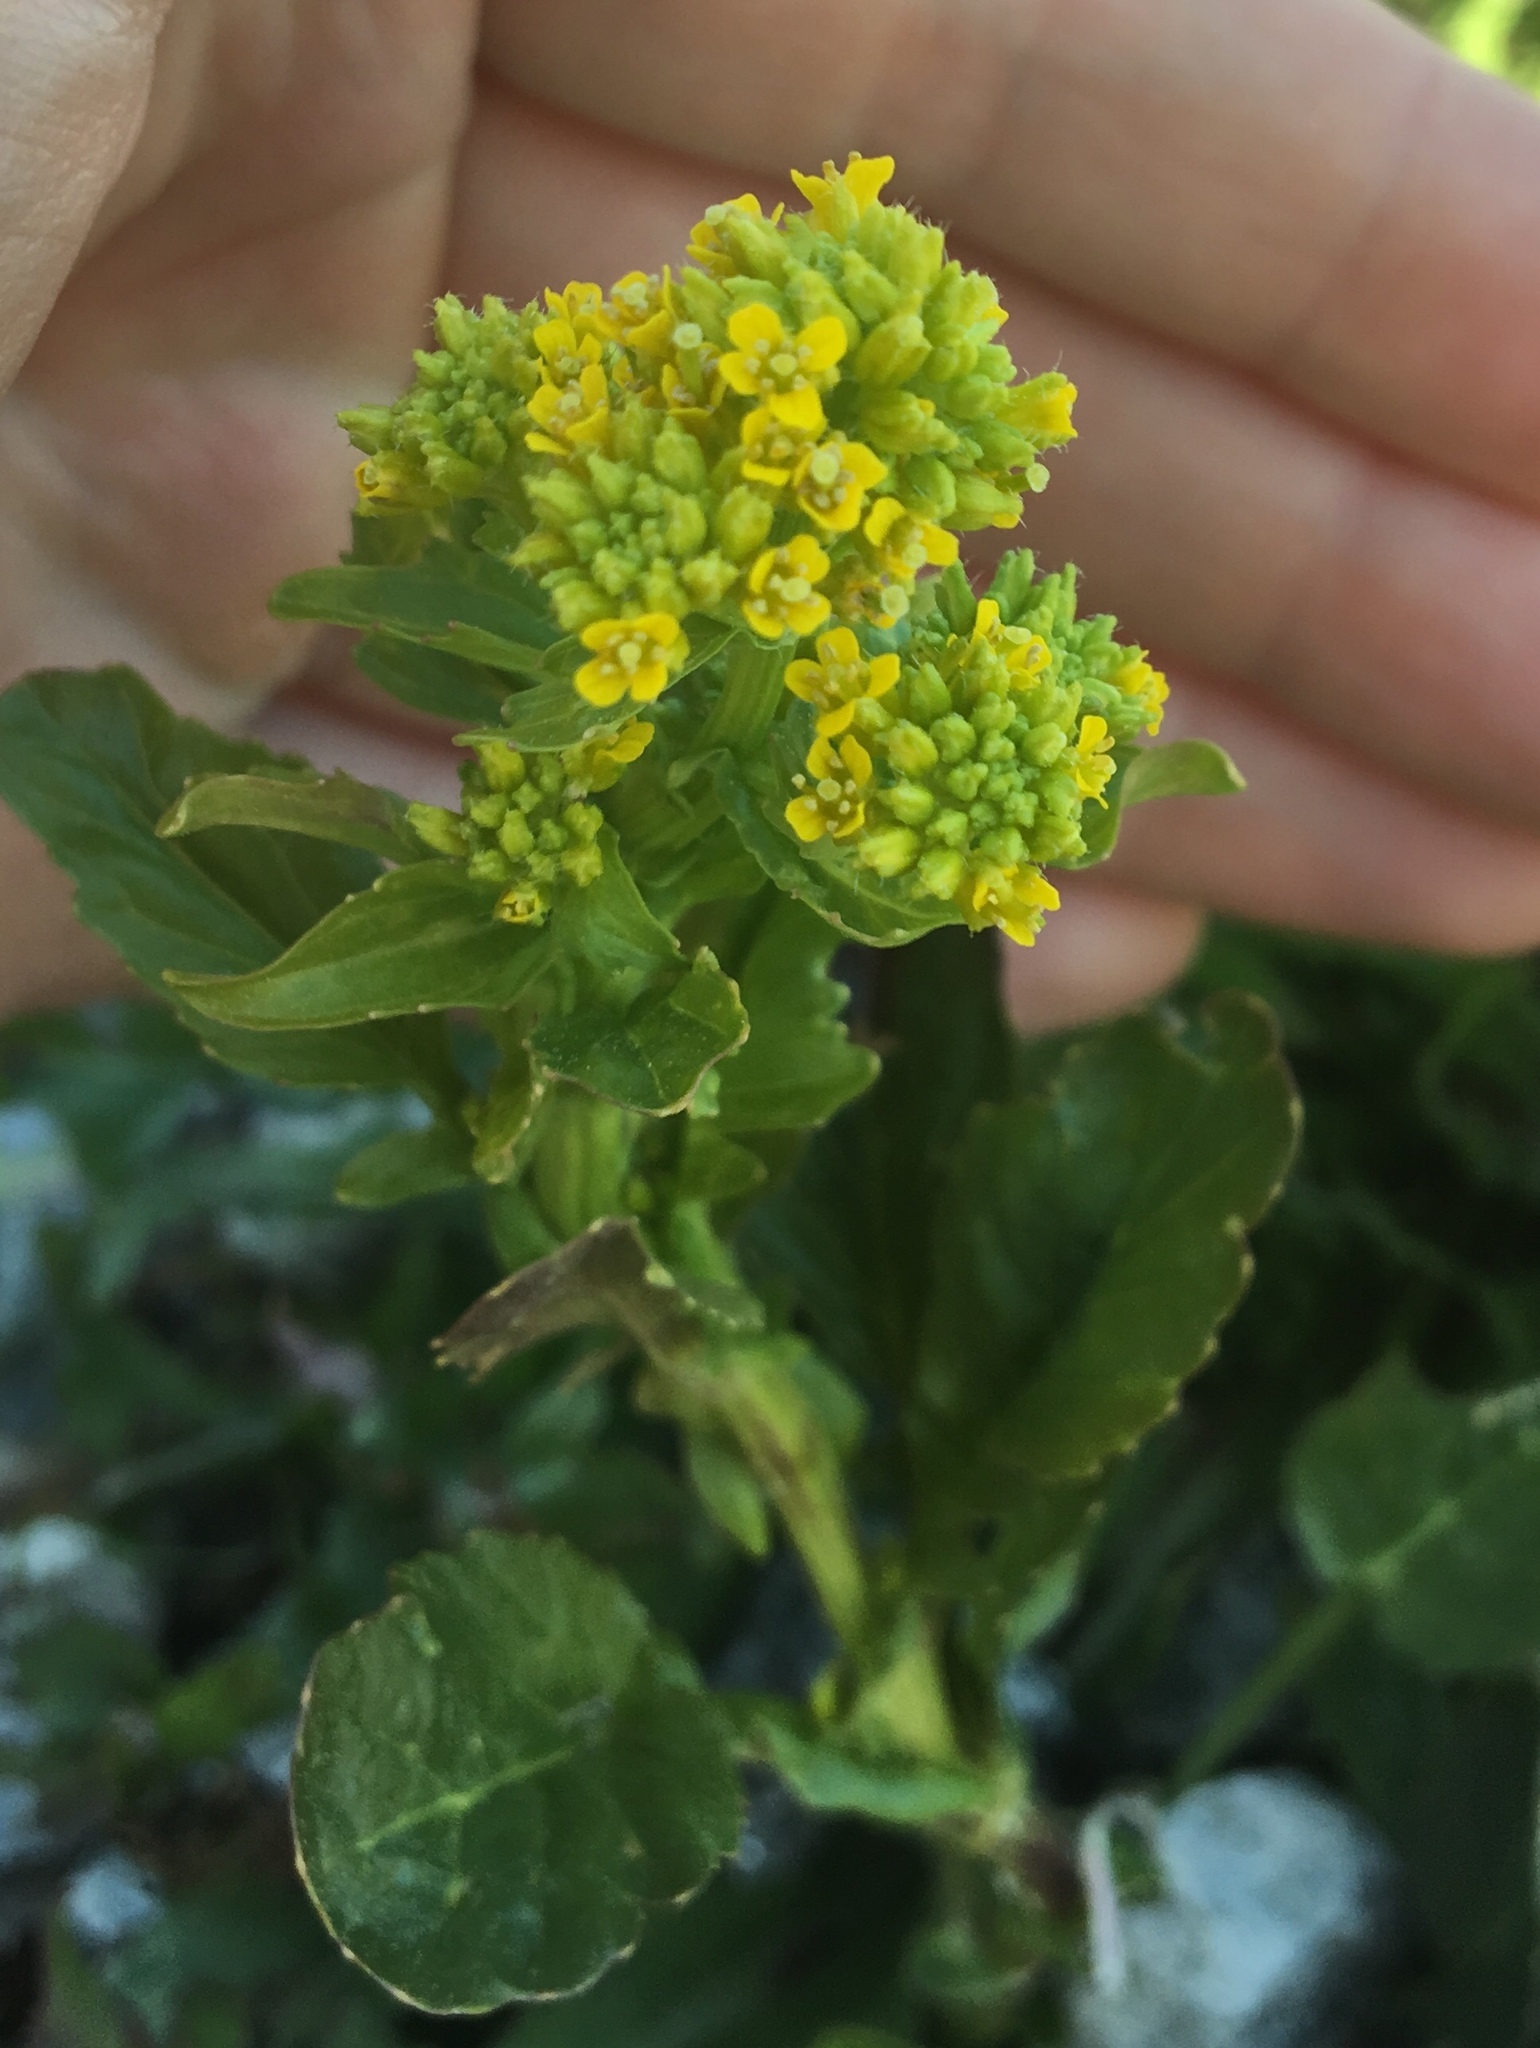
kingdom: Plantae
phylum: Tracheophyta
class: Magnoliopsida
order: Brassicales
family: Brassicaceae
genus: Barbarea
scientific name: Barbarea vulgaris
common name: Cressy-greens
